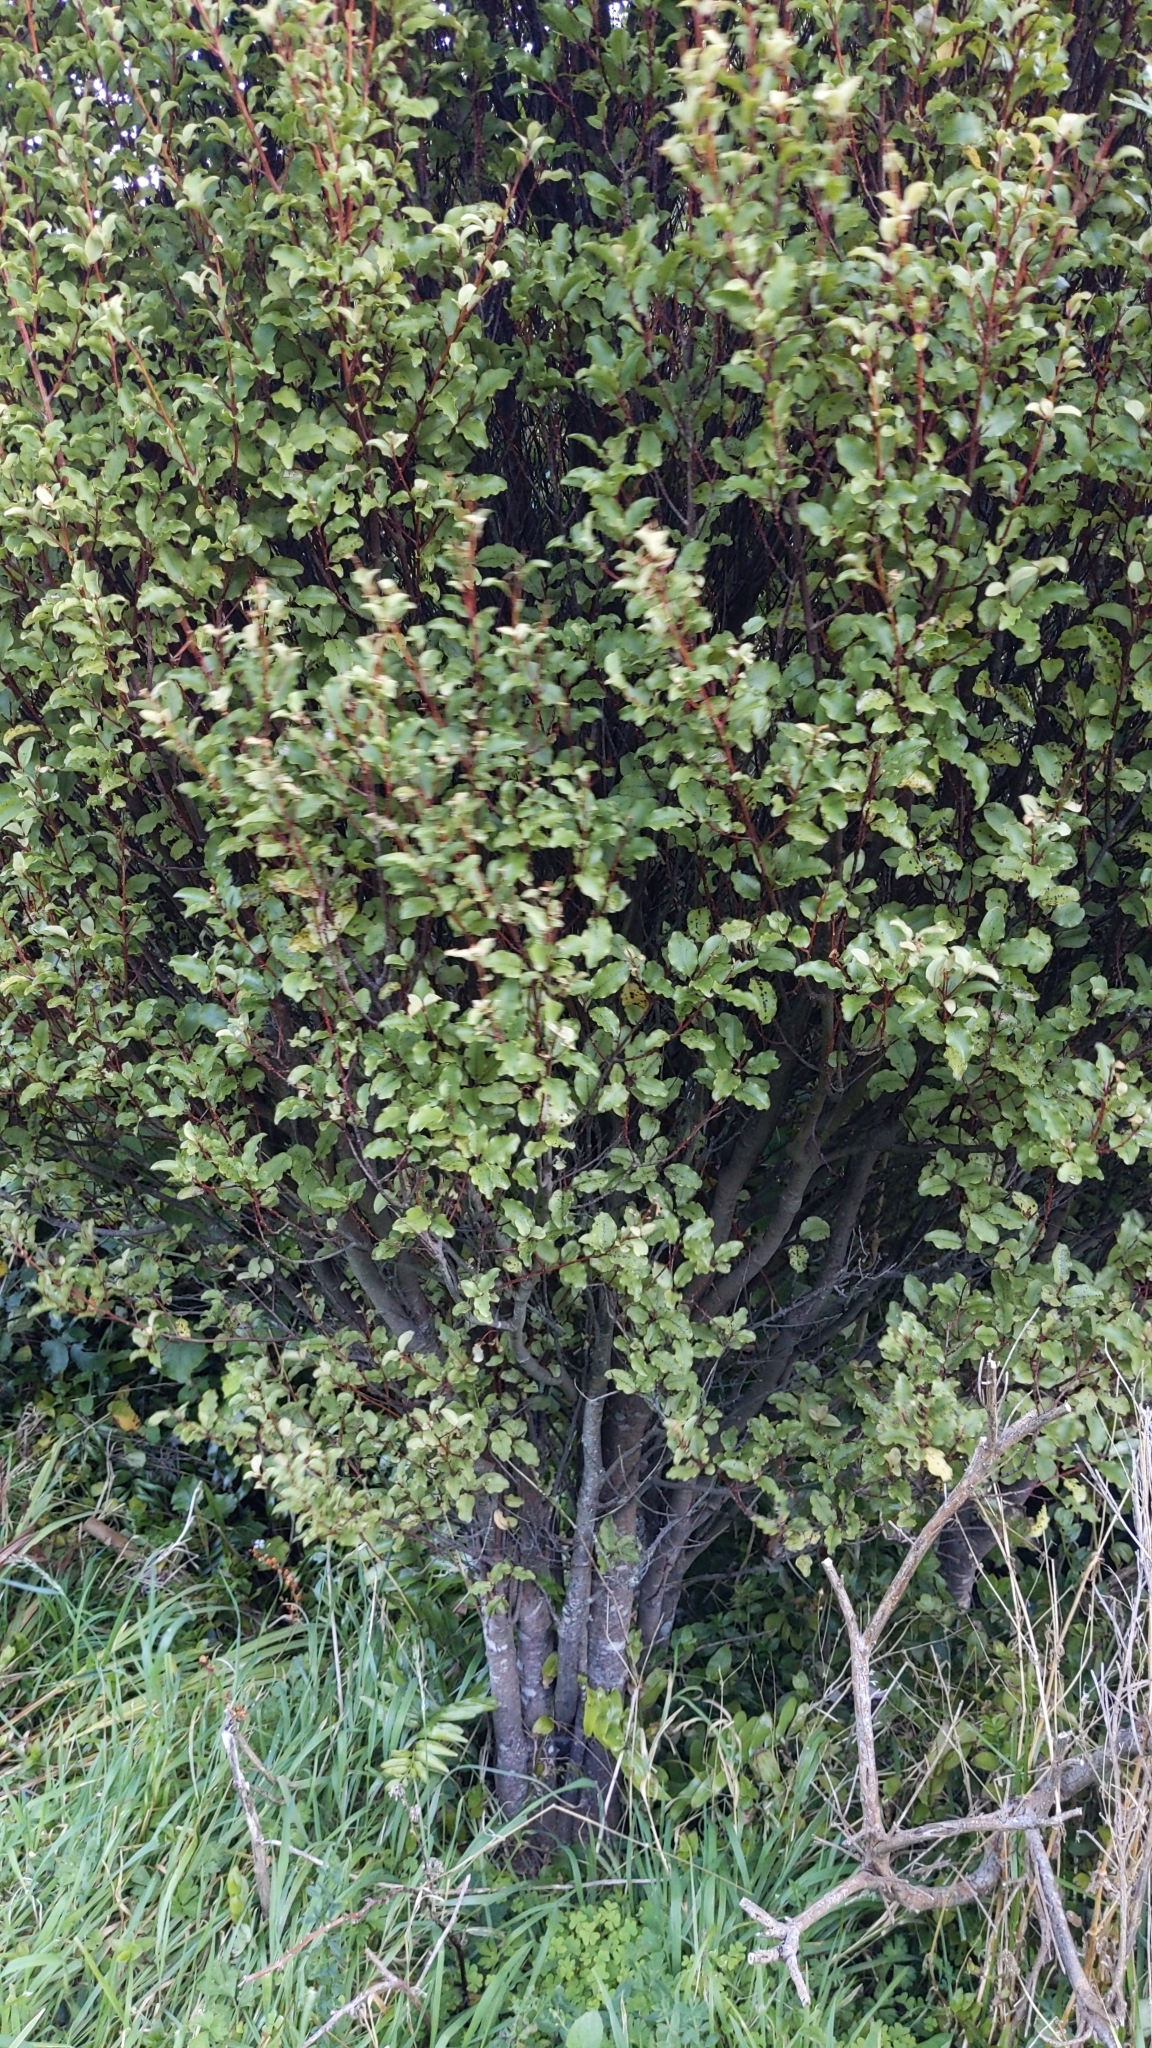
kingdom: Plantae
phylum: Tracheophyta
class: Magnoliopsida
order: Ericales
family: Primulaceae
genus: Myrsine
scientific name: Myrsine australis
